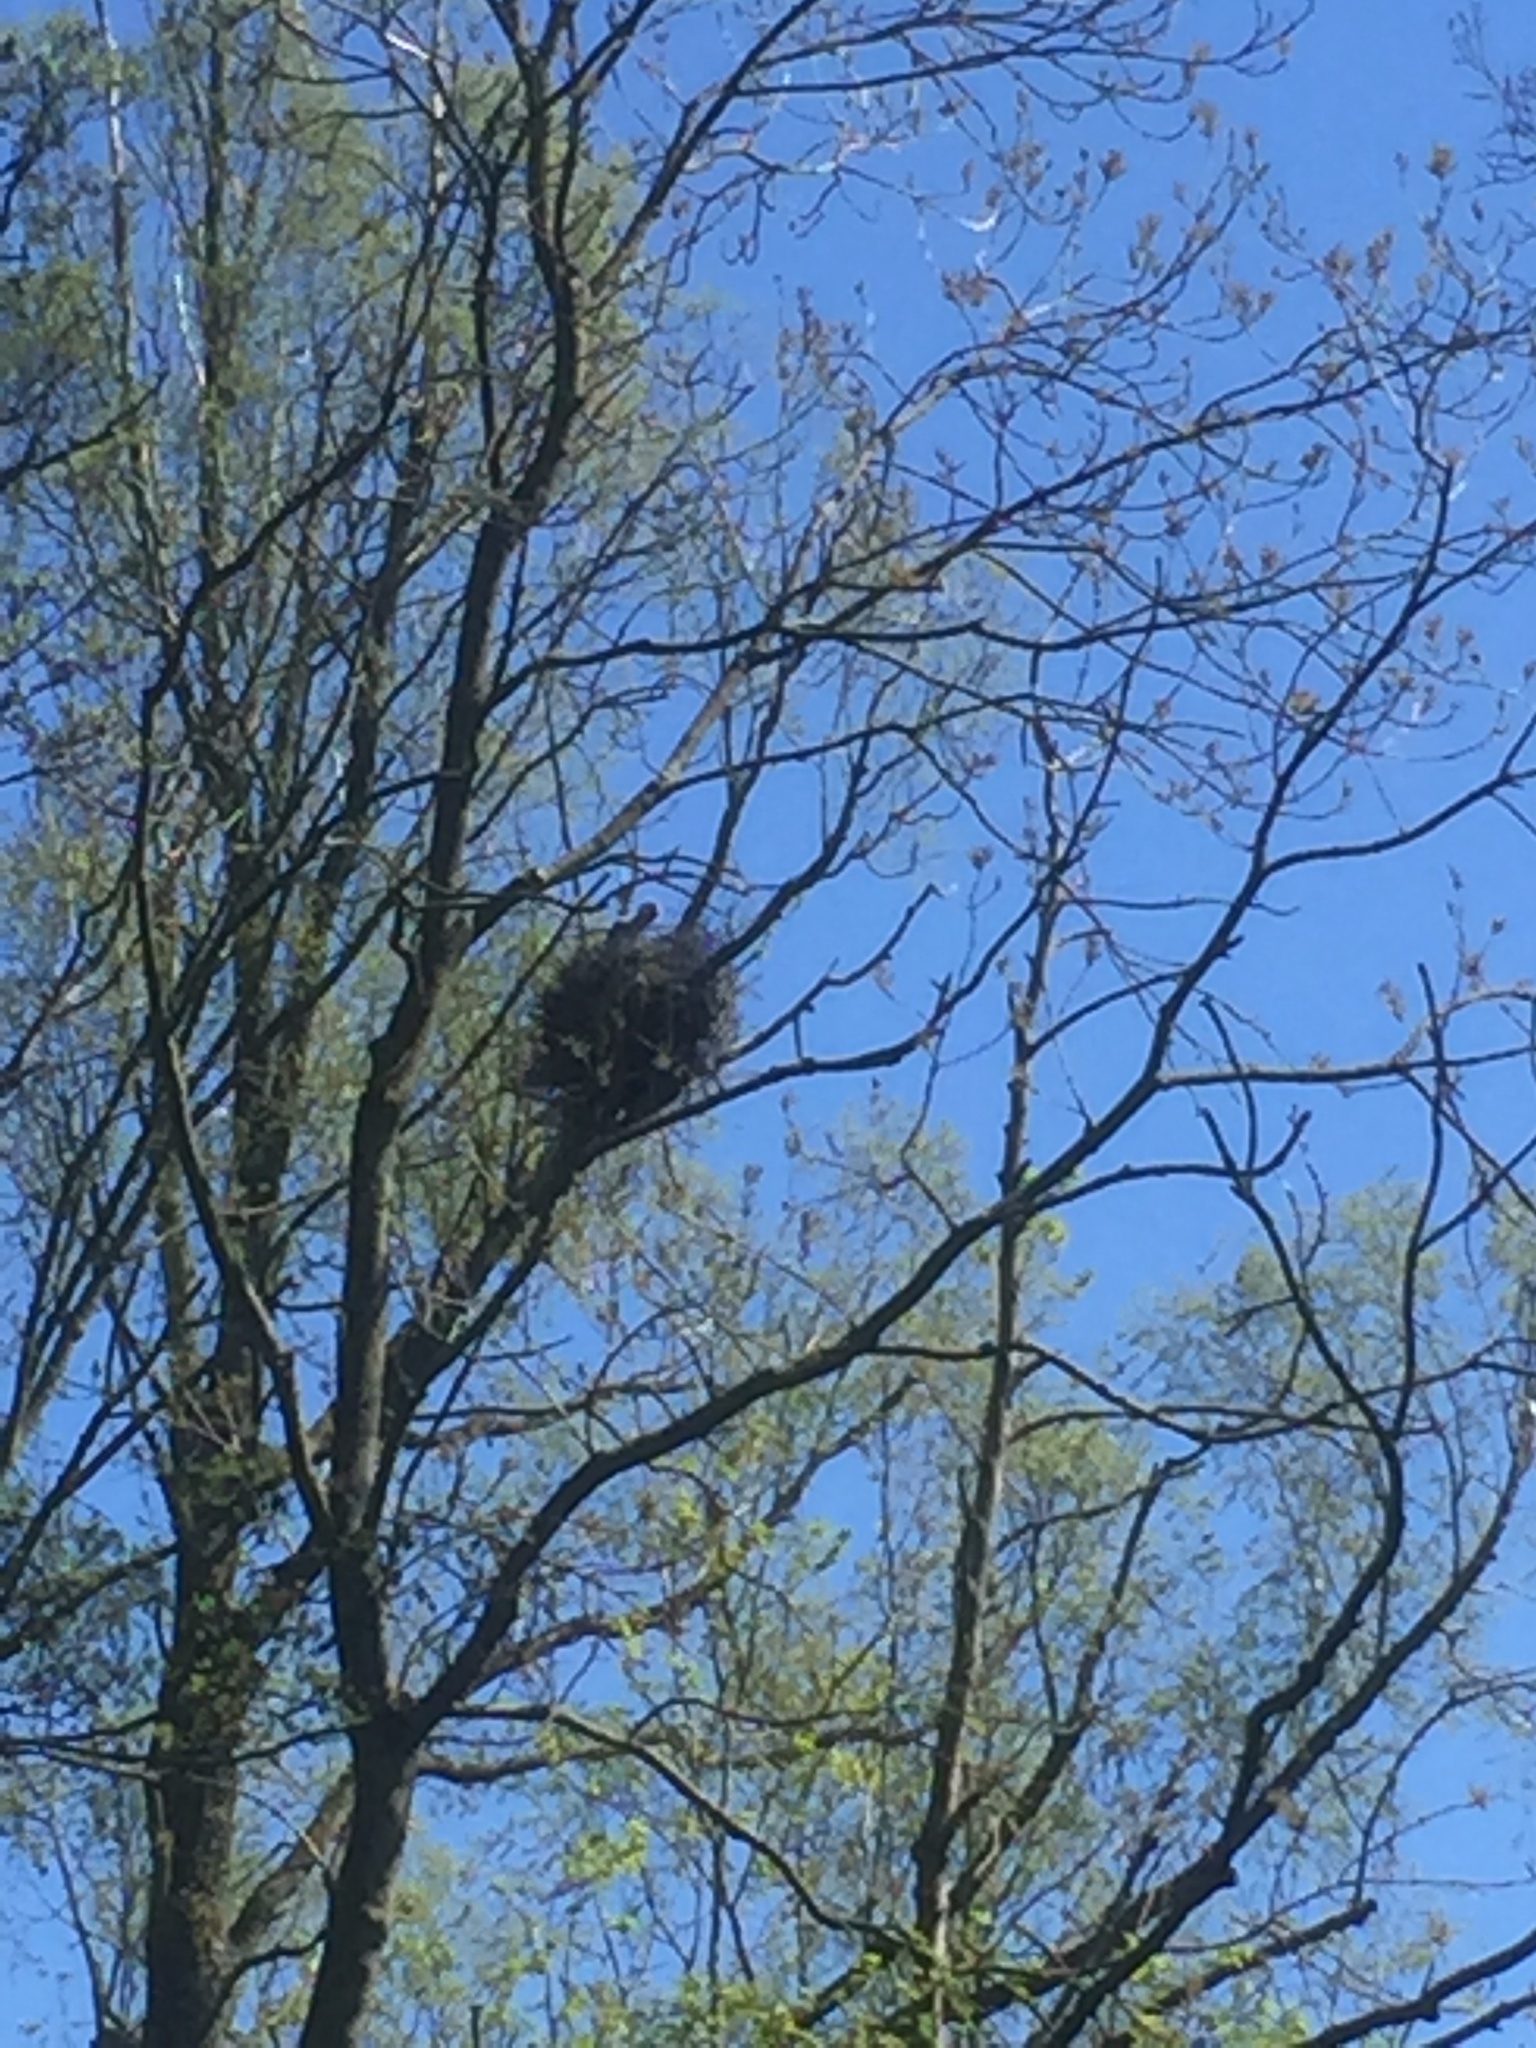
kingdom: Animalia
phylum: Chordata
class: Aves
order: Pelecaniformes
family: Ardeidae
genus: Ardea
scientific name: Ardea cinerea
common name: Grey heron
